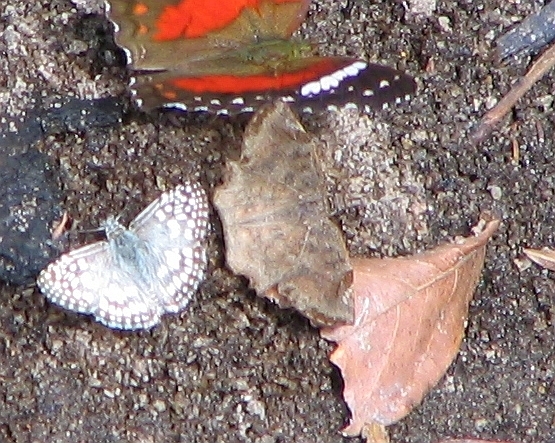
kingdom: Animalia
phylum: Arthropoda
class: Insecta
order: Lepidoptera
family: Hesperiidae
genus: Pyrgus
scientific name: Pyrgus oileus
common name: Tropical checkered-skipper
